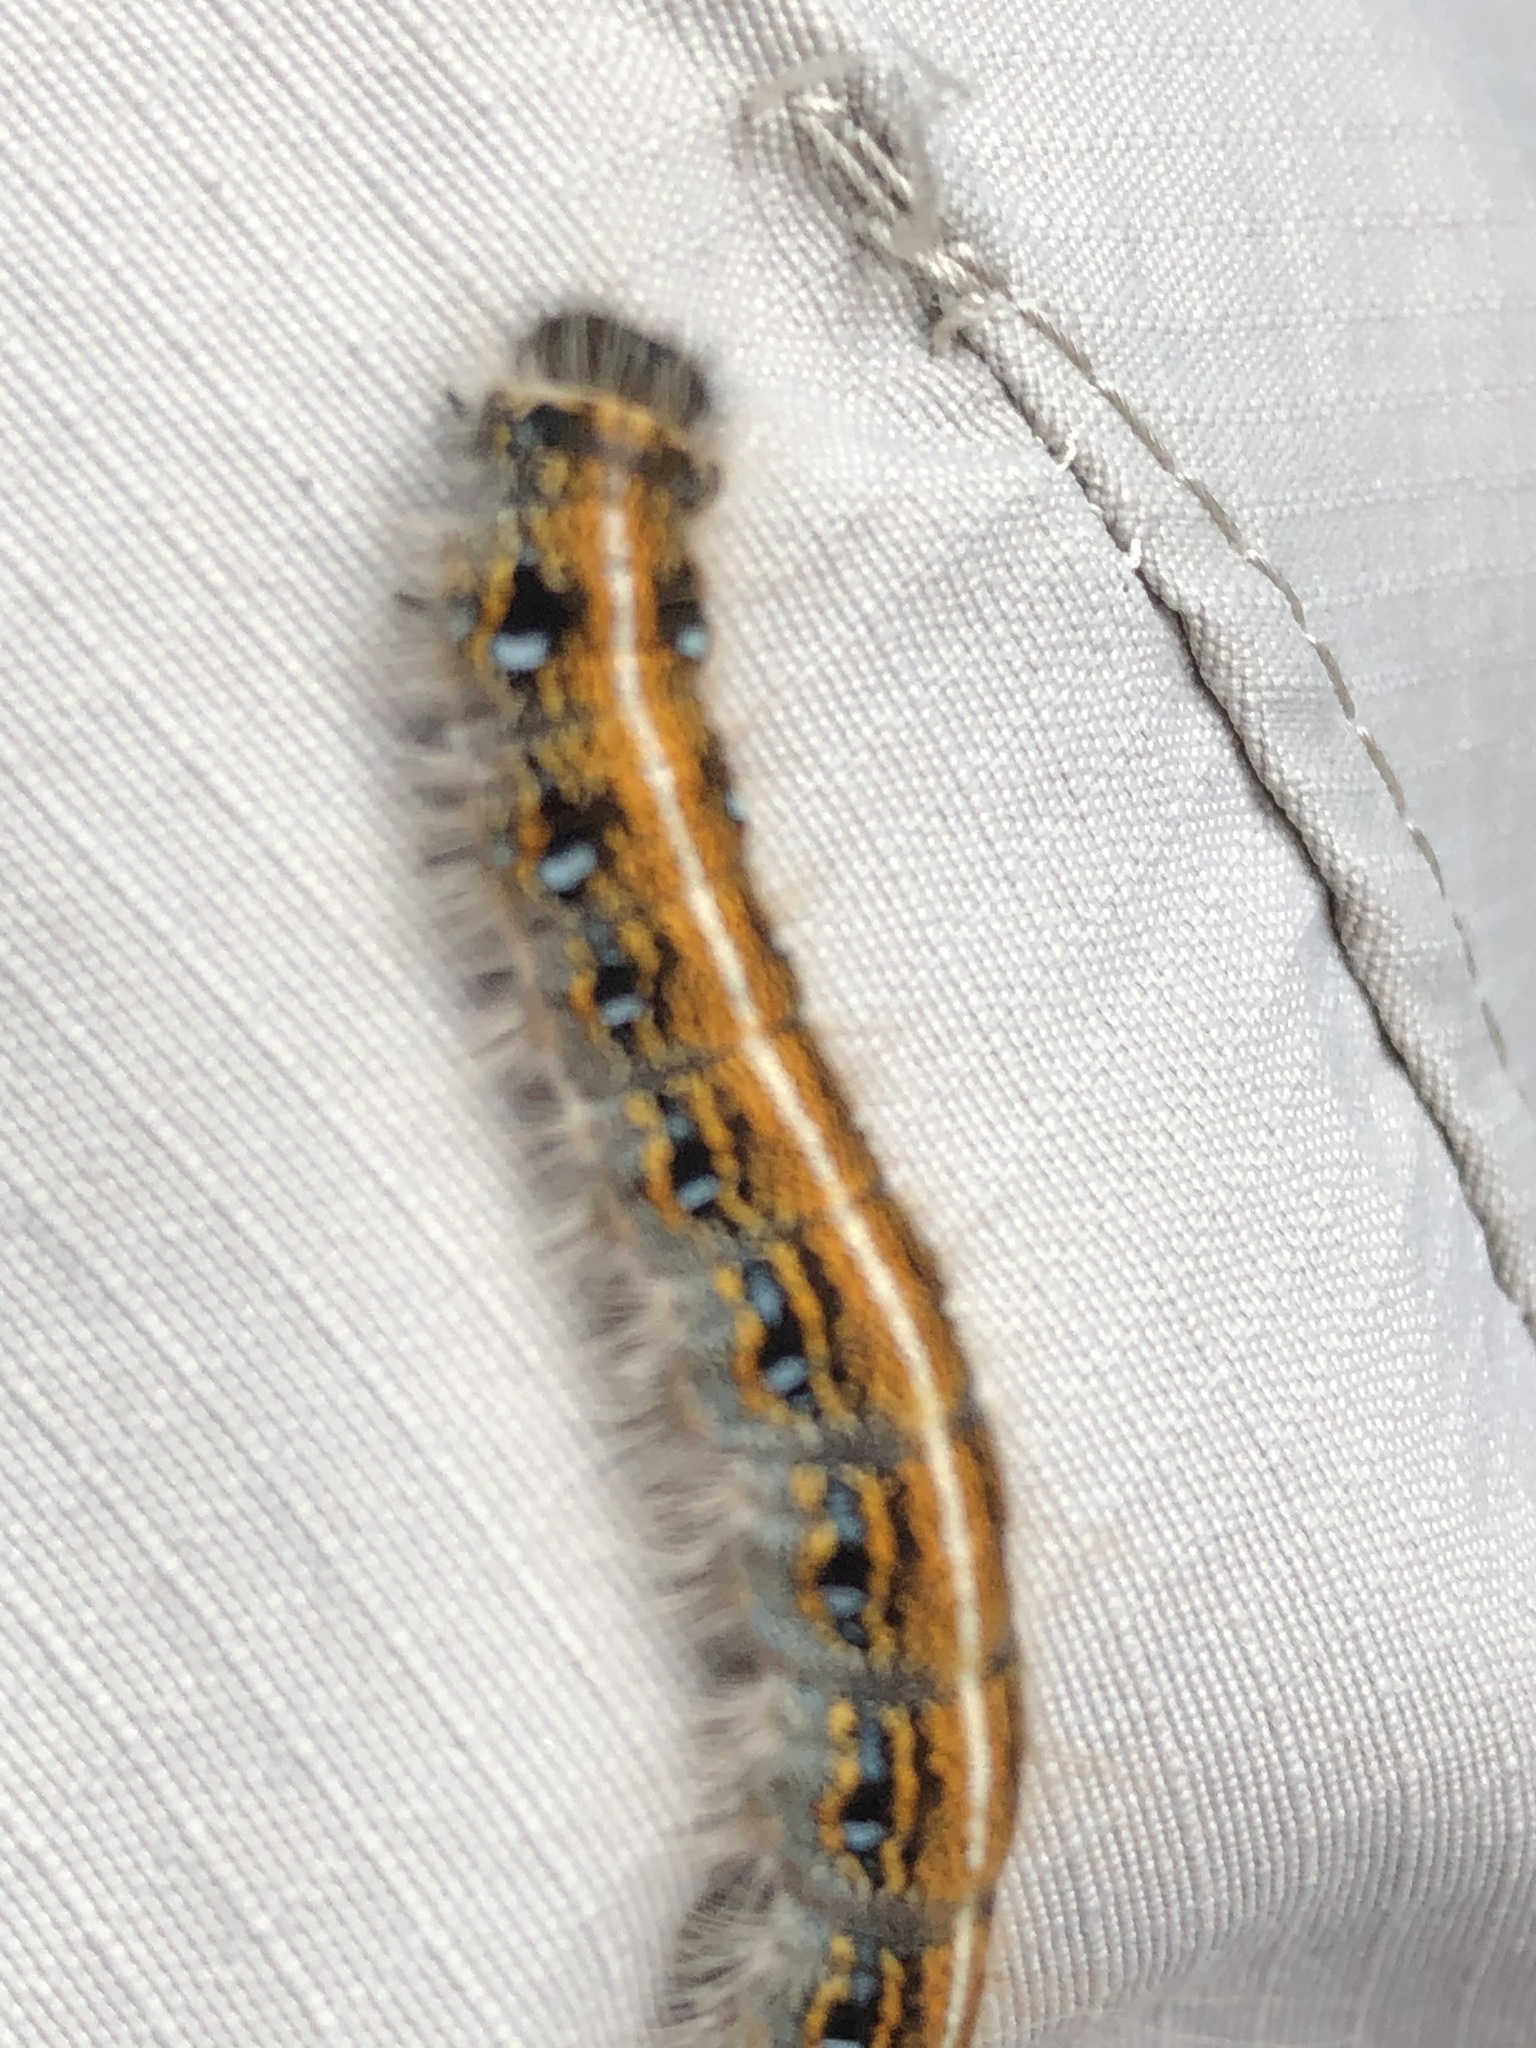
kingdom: Animalia
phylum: Arthropoda
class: Insecta
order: Lepidoptera
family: Lasiocampidae
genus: Malacosoma
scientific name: Malacosoma americana
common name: Eastern tent caterpillar moth
